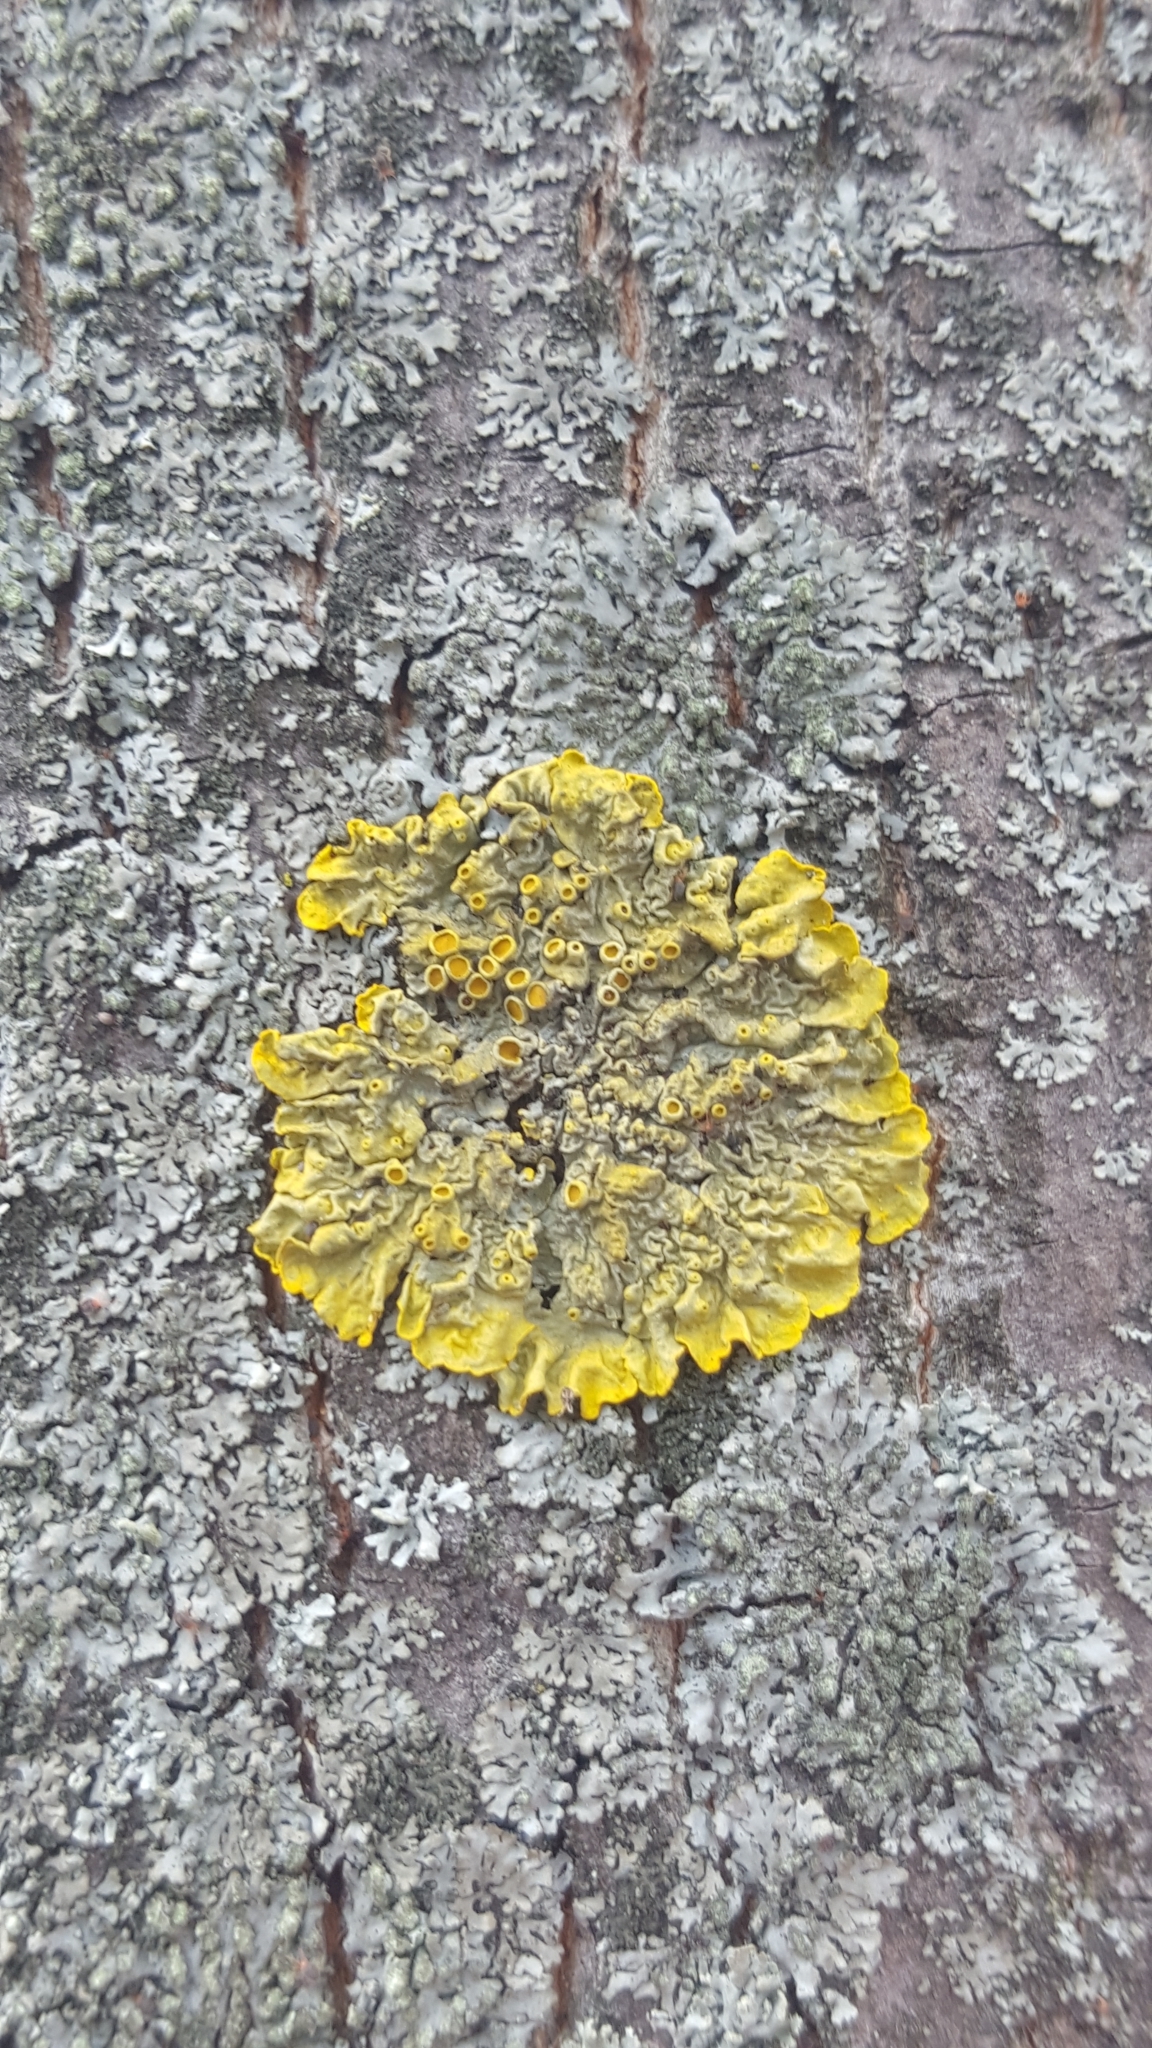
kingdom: Fungi
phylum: Ascomycota
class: Lecanoromycetes
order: Teloschistales
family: Teloschistaceae
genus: Xanthoria
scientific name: Xanthoria parietina
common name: Common orange lichen
